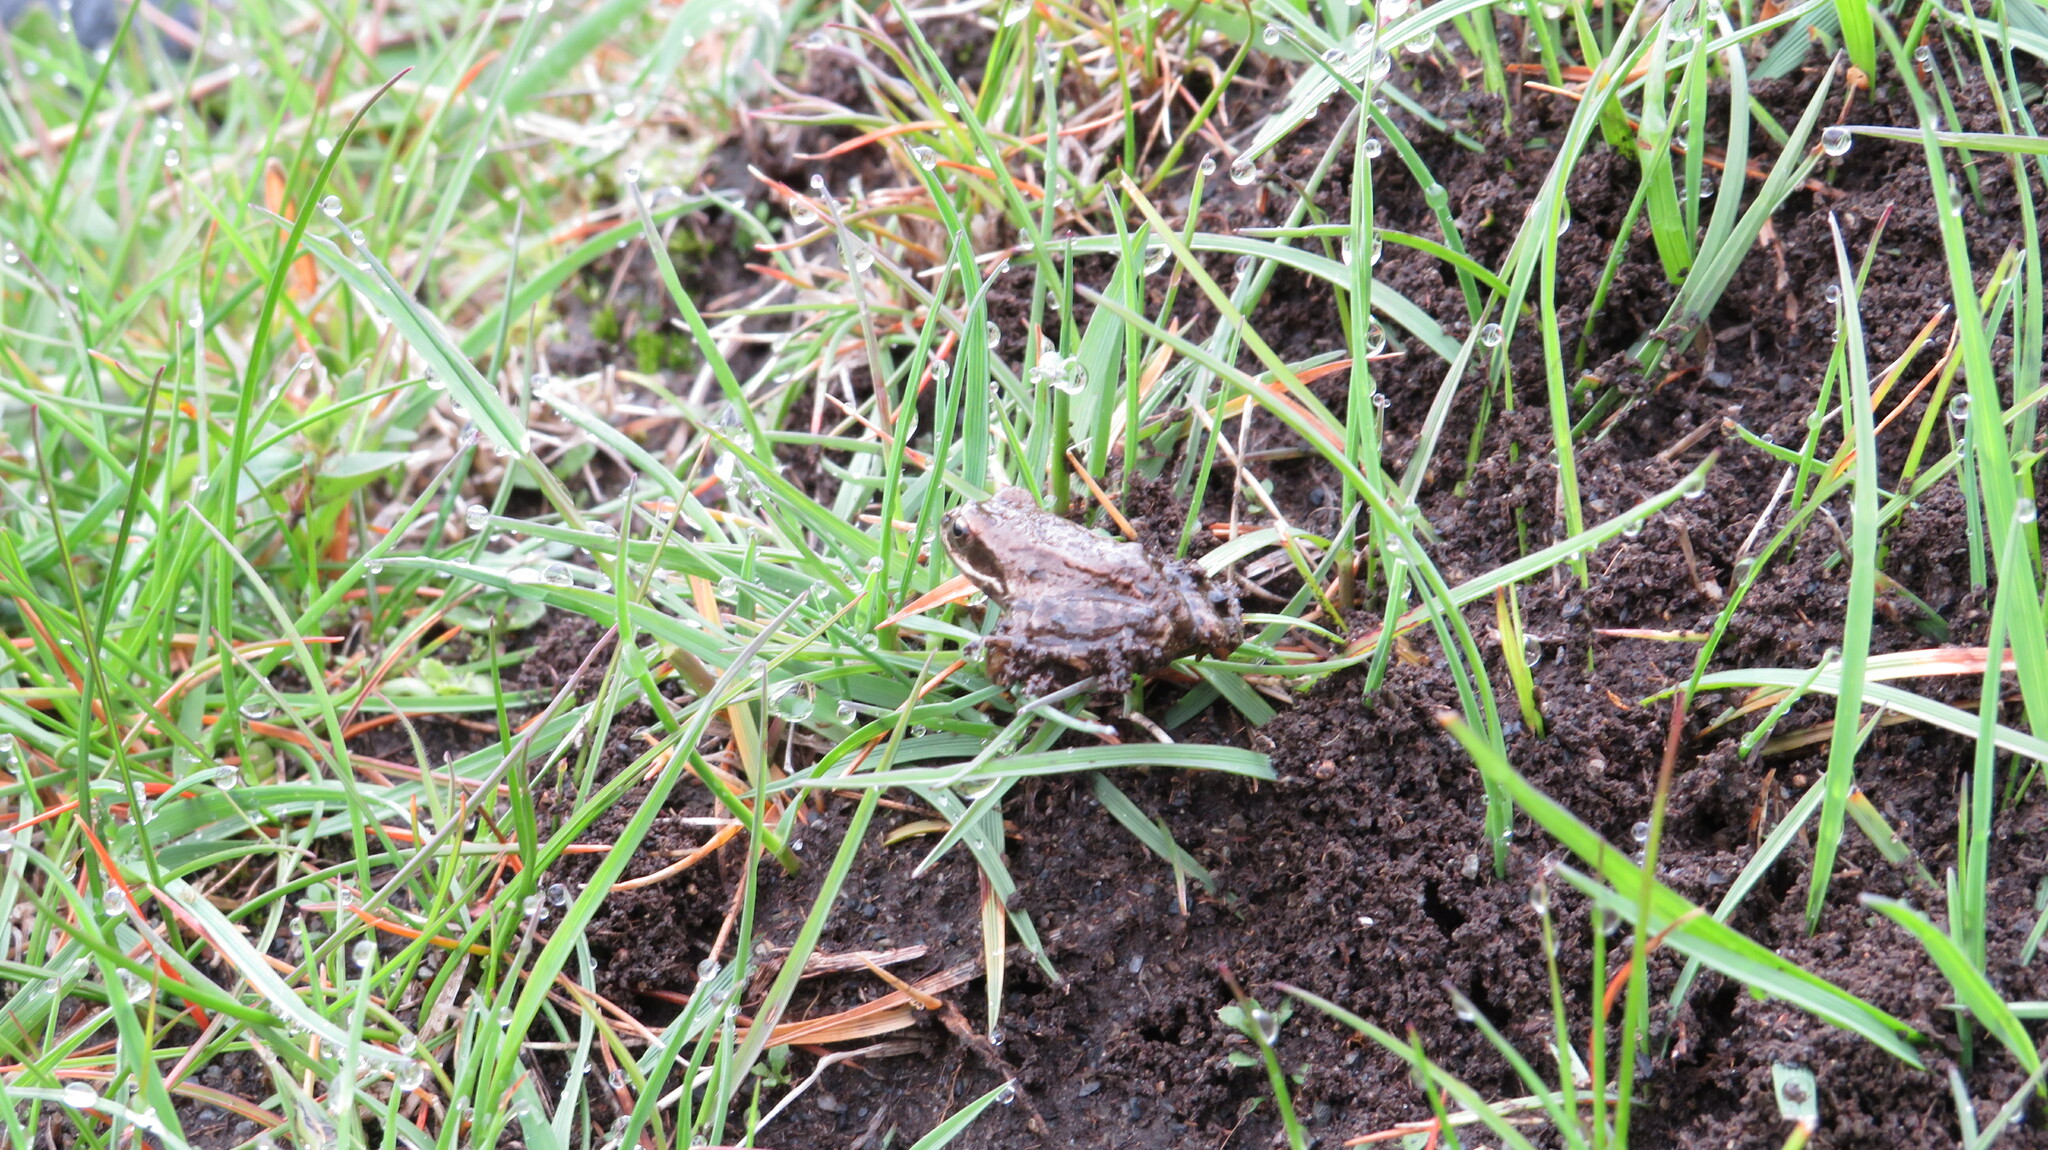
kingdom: Animalia
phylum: Chordata
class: Amphibia
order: Anura
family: Ranidae
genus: Rana
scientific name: Rana macrocnemis
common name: Banded frog
